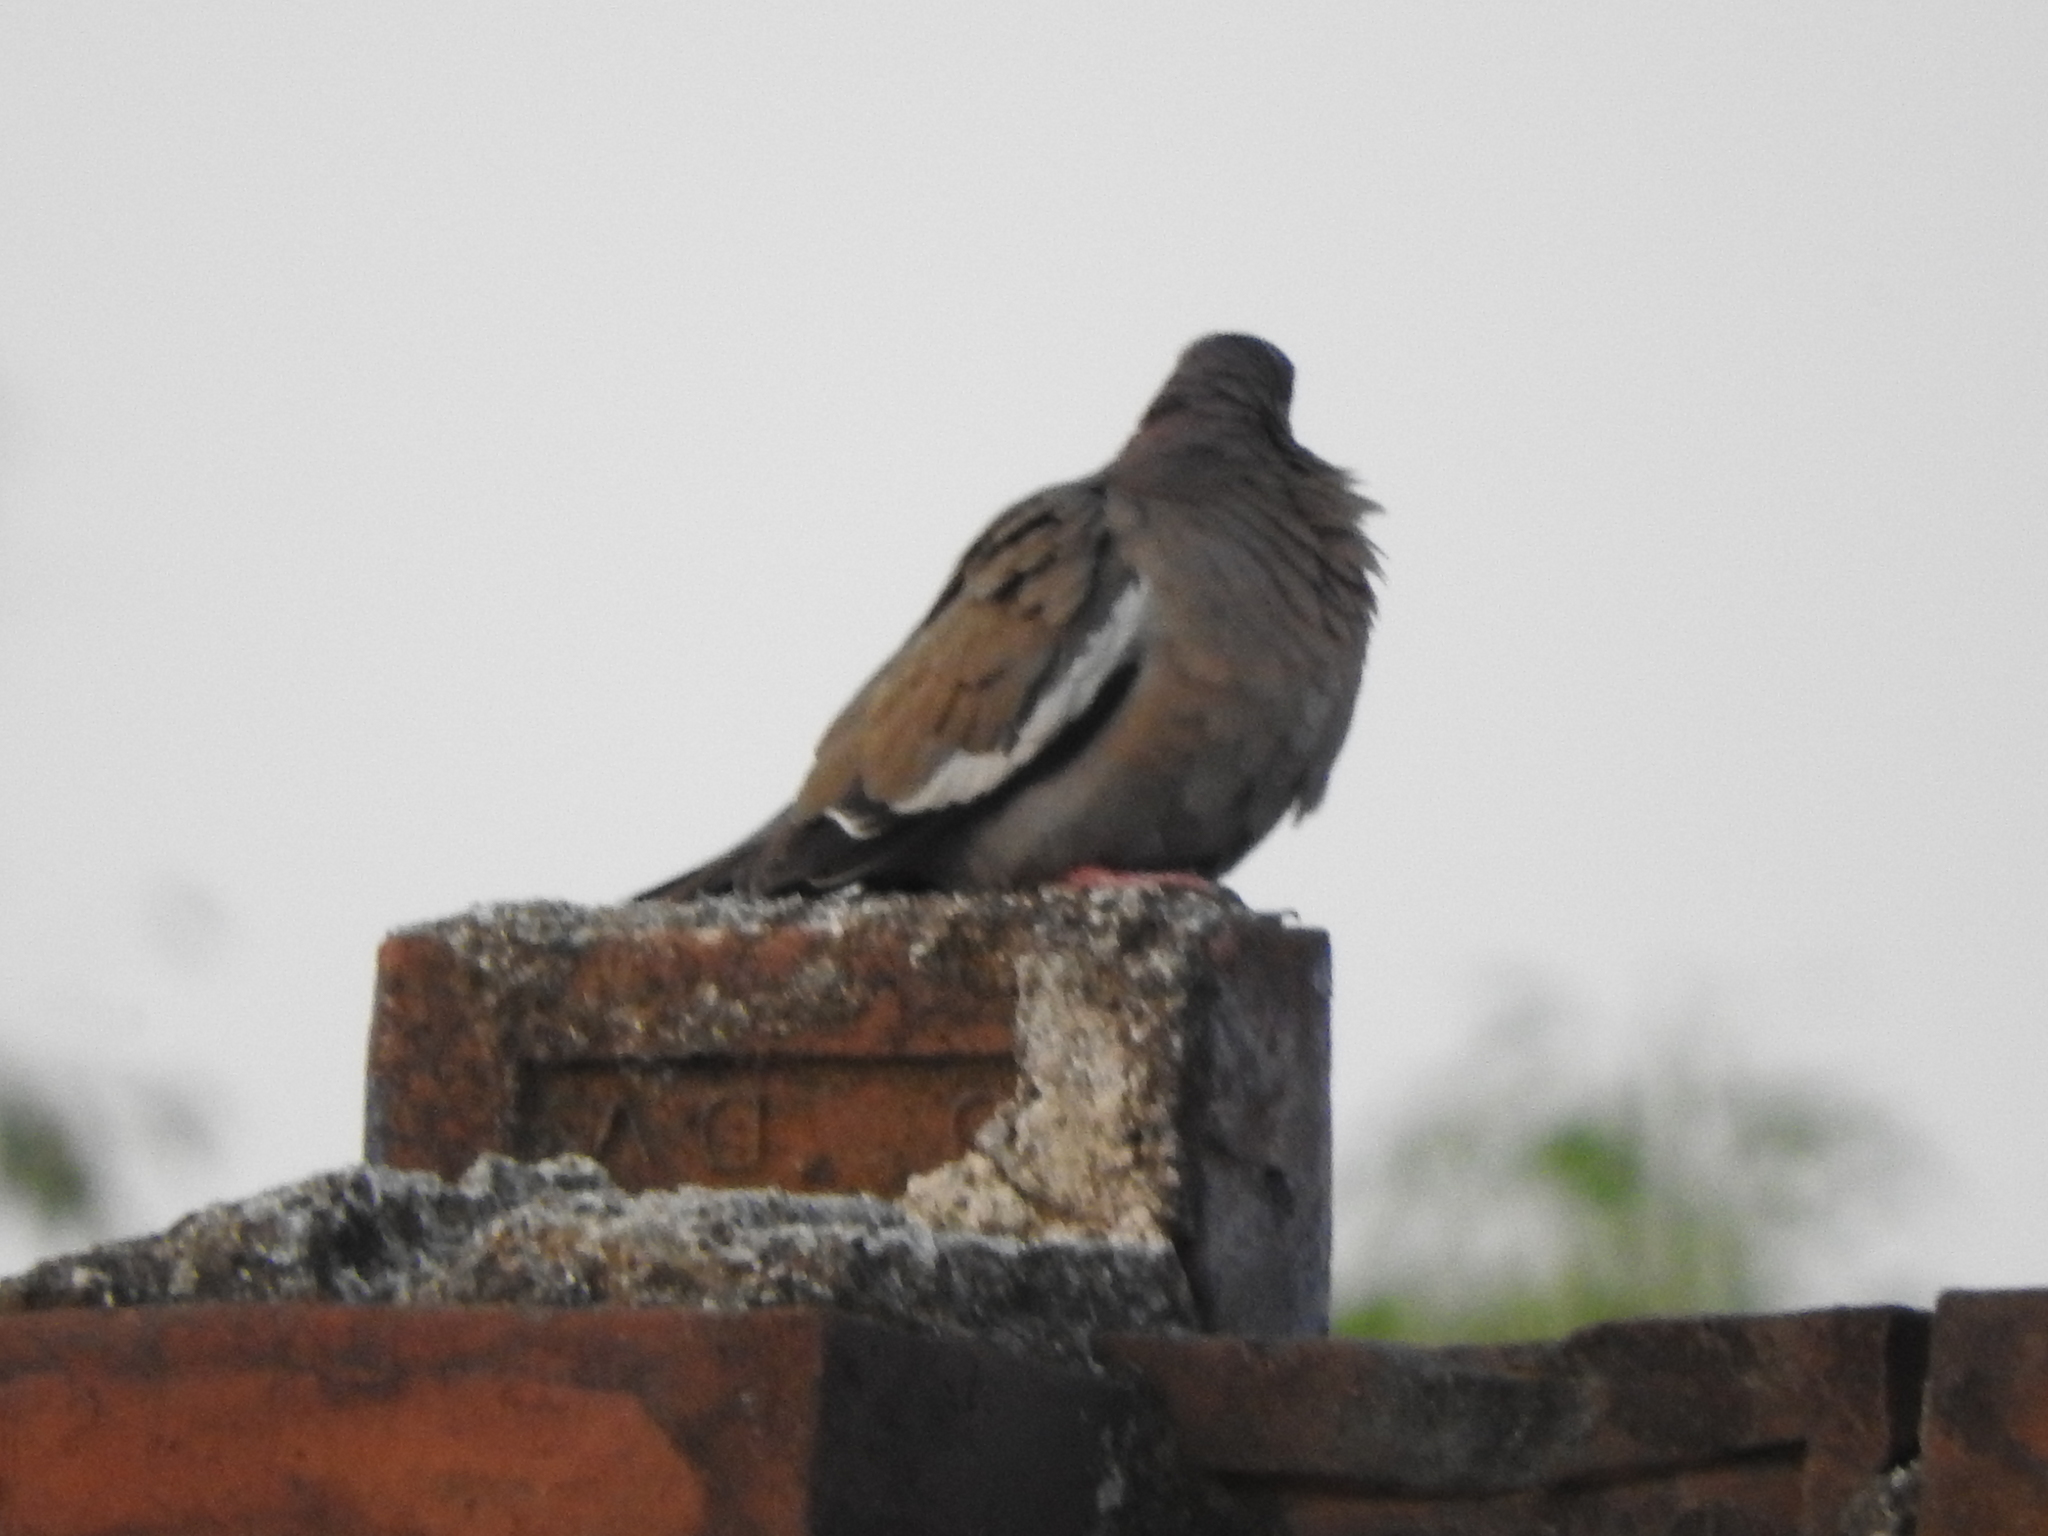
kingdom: Animalia
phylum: Chordata
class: Aves
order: Columbiformes
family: Columbidae
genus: Zenaida
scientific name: Zenaida asiatica
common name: White-winged dove
